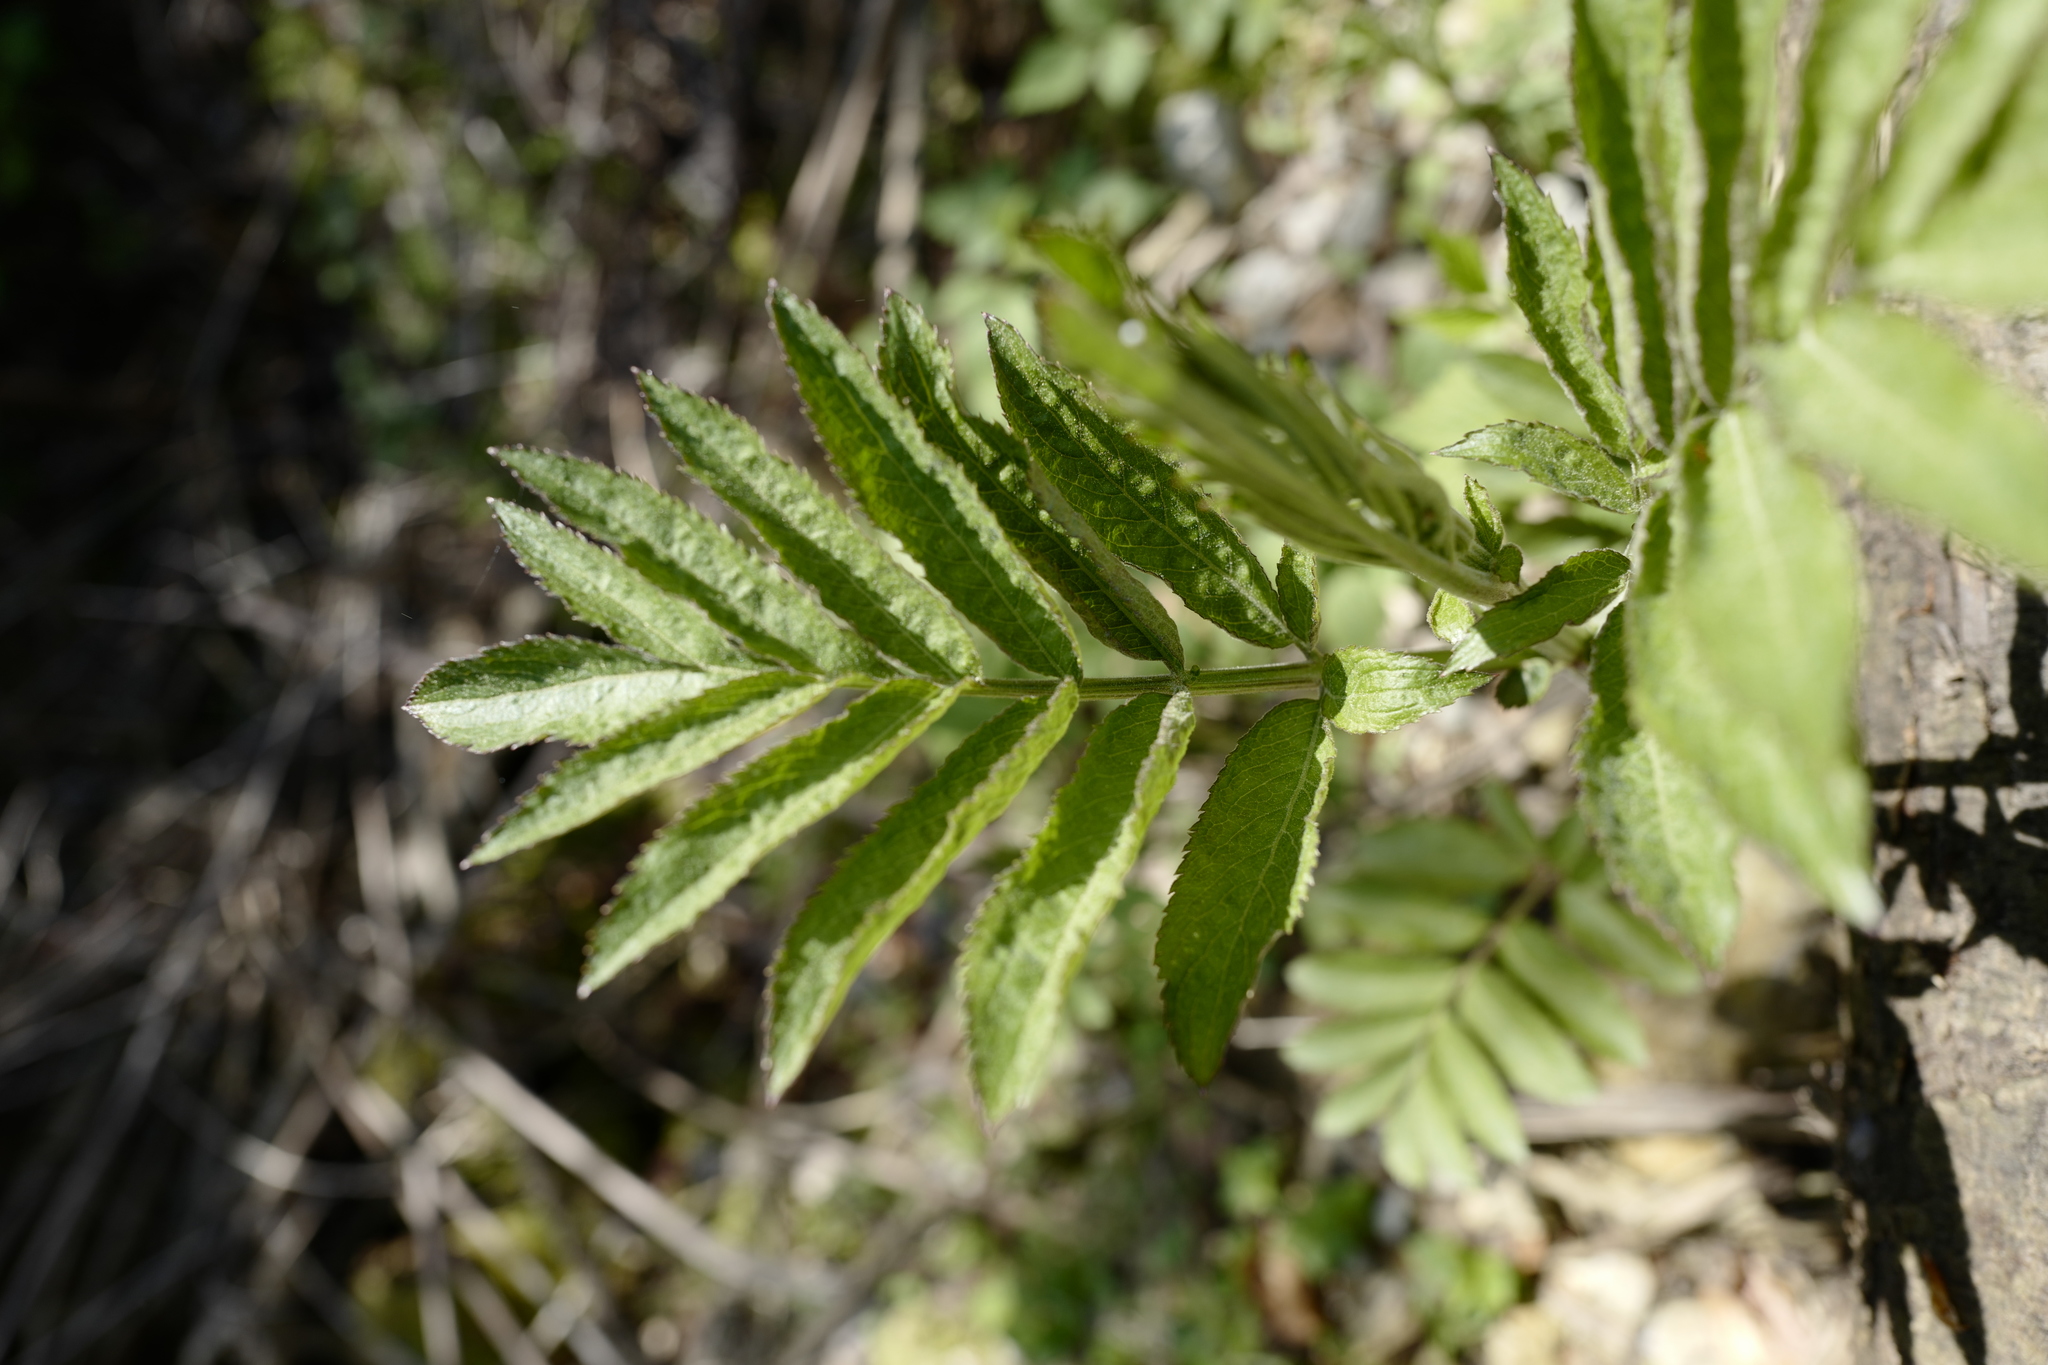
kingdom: Plantae
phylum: Tracheophyta
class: Magnoliopsida
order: Dipsacales
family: Viburnaceae
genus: Sambucus
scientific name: Sambucus ebulus
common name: Dwarf elder
